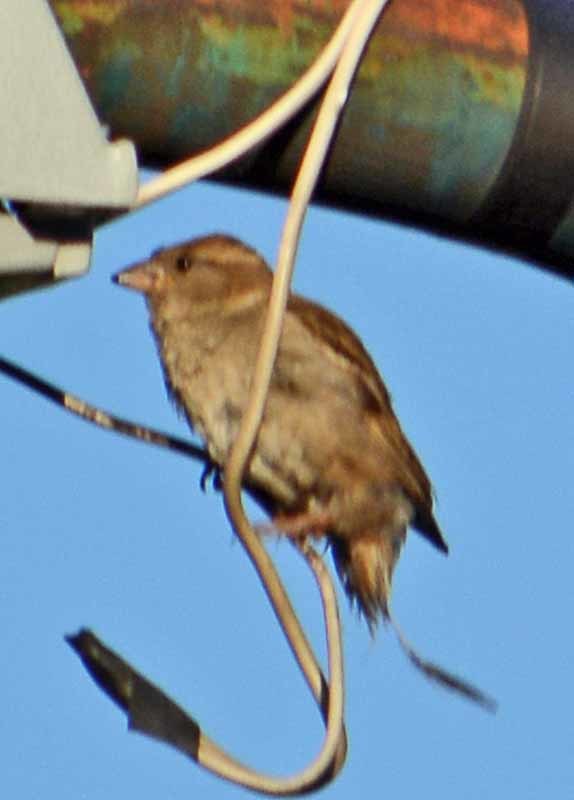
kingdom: Animalia
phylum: Chordata
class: Aves
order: Passeriformes
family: Passeridae
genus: Passer
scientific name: Passer domesticus
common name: House sparrow
